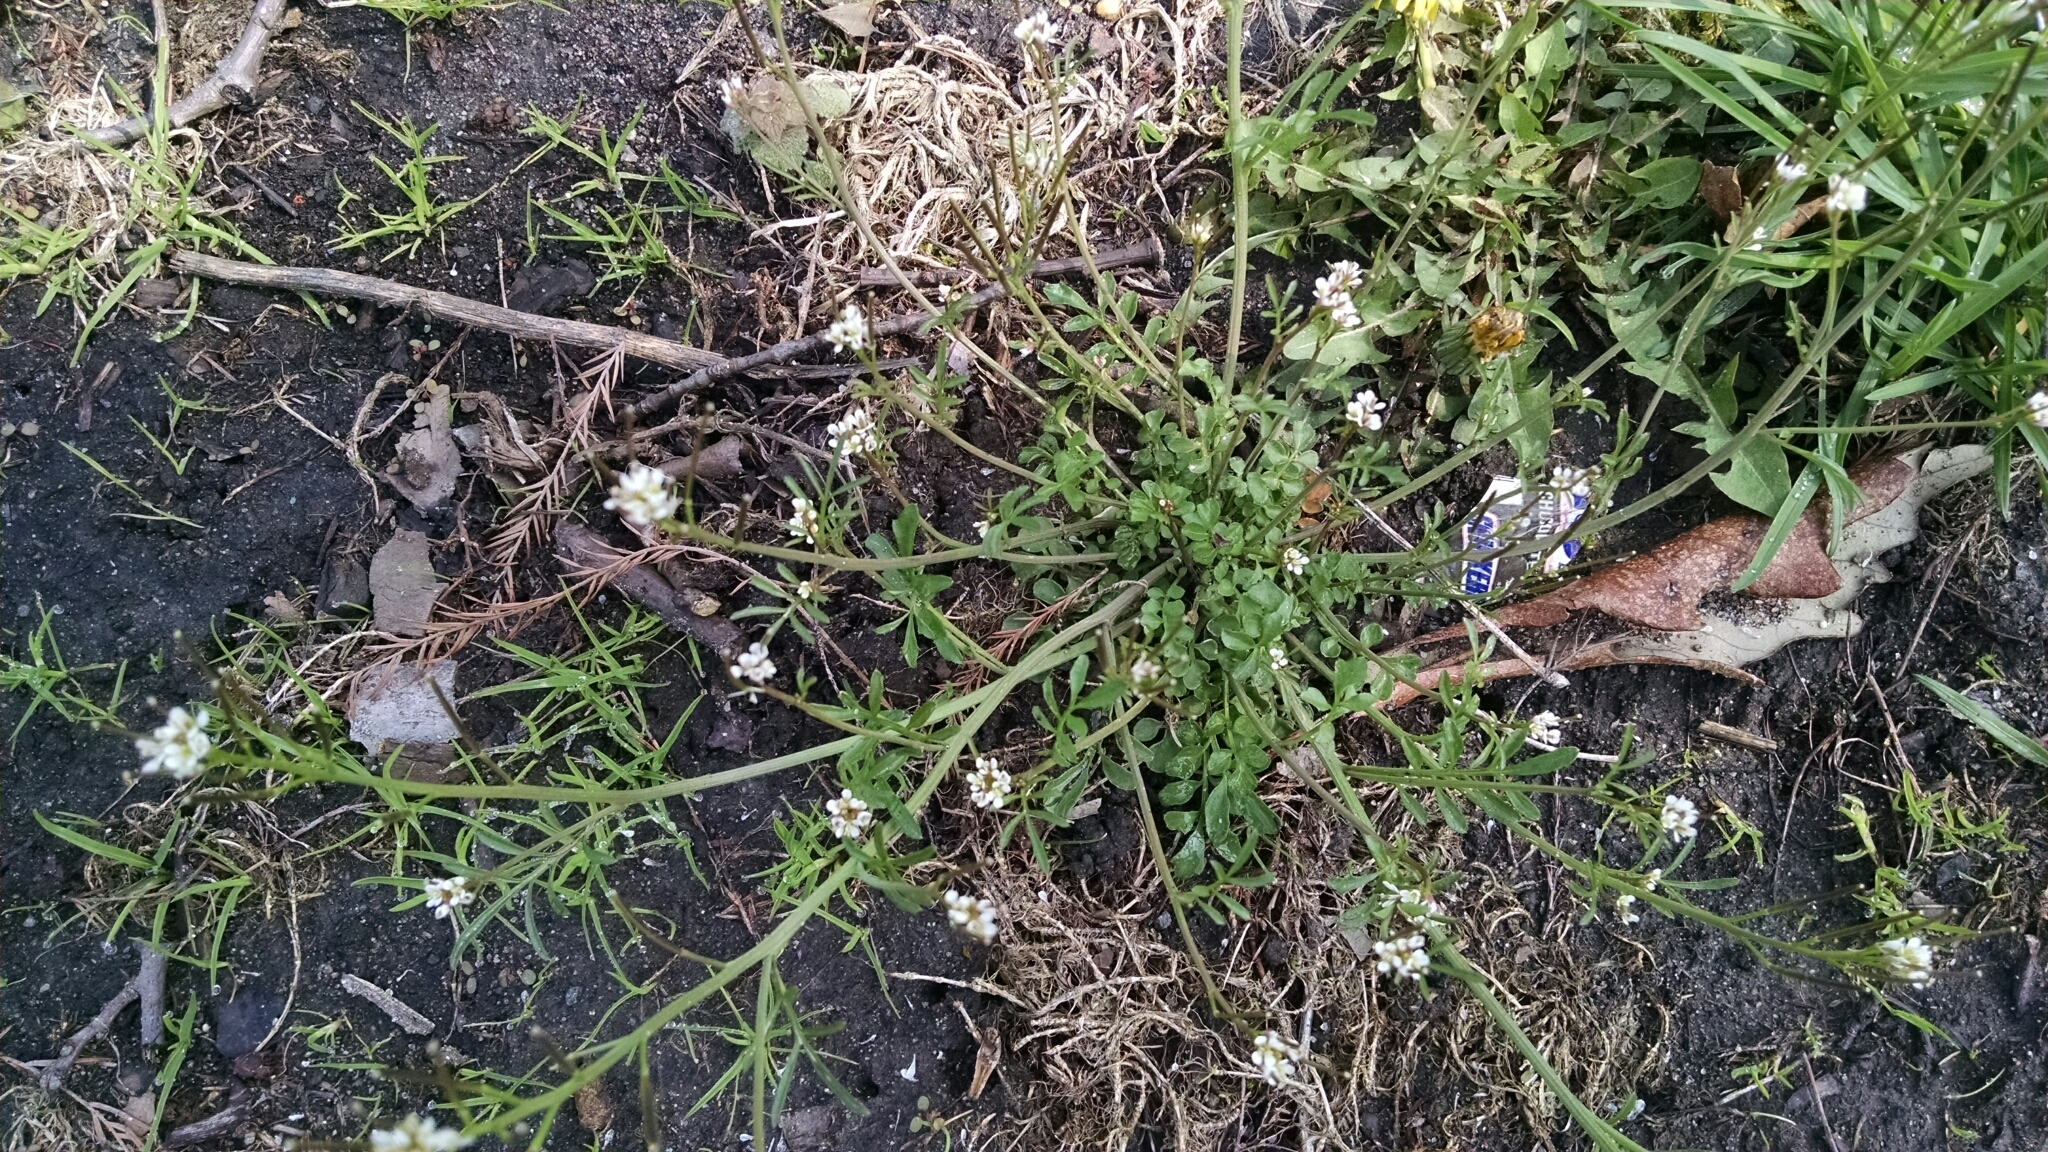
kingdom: Plantae
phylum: Tracheophyta
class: Magnoliopsida
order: Brassicales
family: Brassicaceae
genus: Cardamine
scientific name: Cardamine hirsuta
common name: Hairy bittercress
